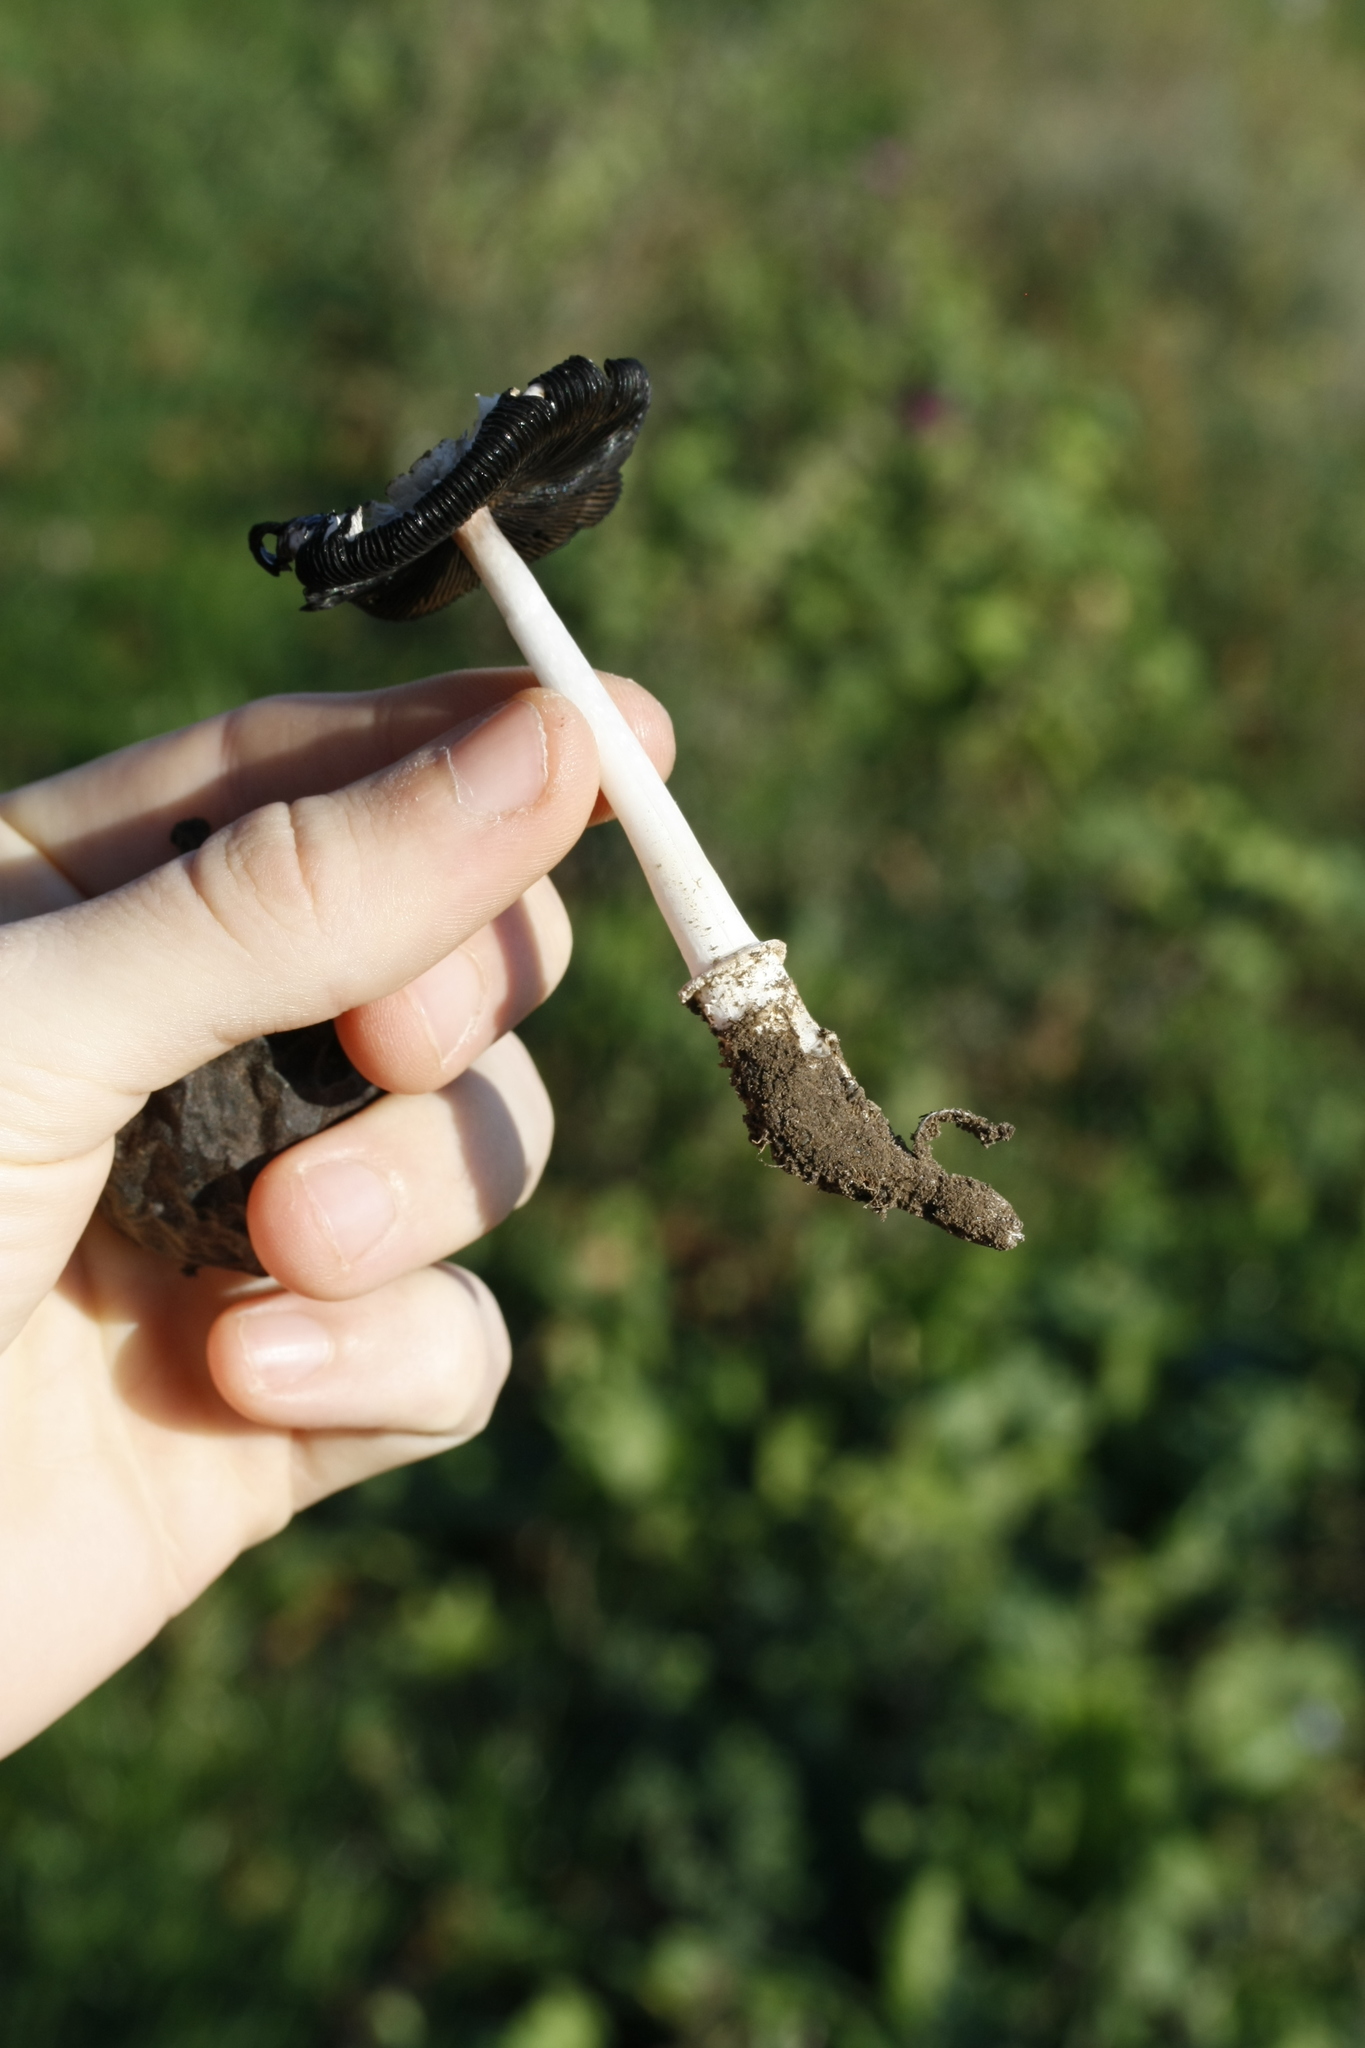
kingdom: Fungi
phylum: Basidiomycota
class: Agaricomycetes
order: Agaricales
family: Agaricaceae
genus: Coprinus
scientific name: Coprinus comatus
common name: Lawyer's wig
